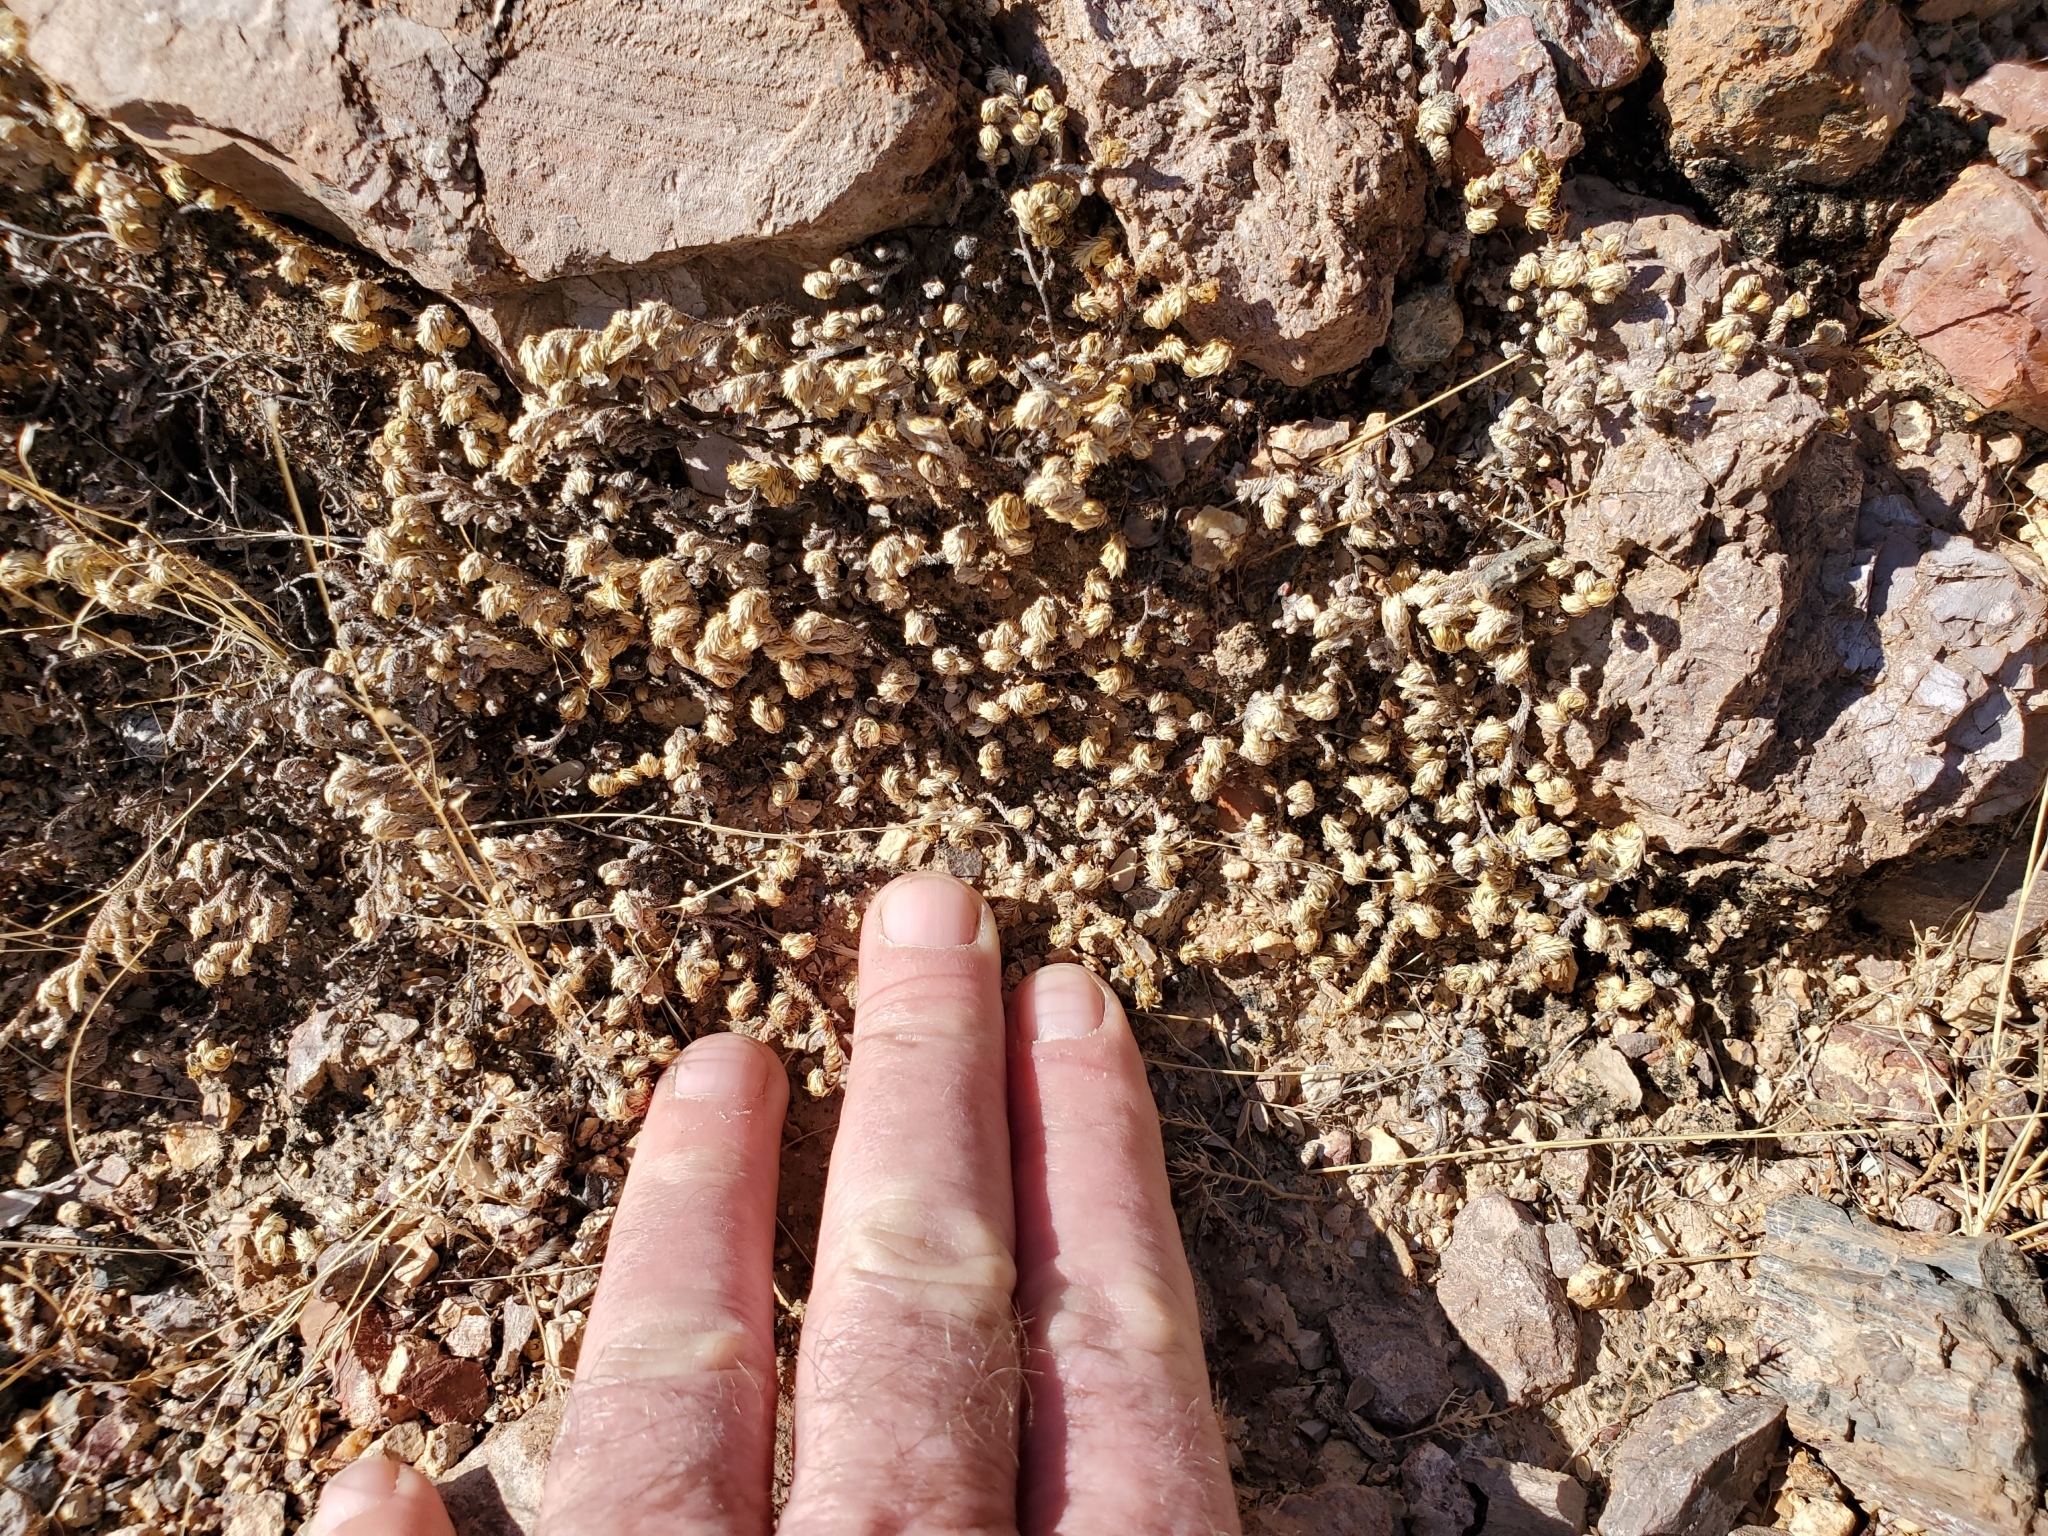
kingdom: Plantae
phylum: Tracheophyta
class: Lycopodiopsida
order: Selaginellales
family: Selaginellaceae
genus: Selaginella
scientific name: Selaginella arizonica
